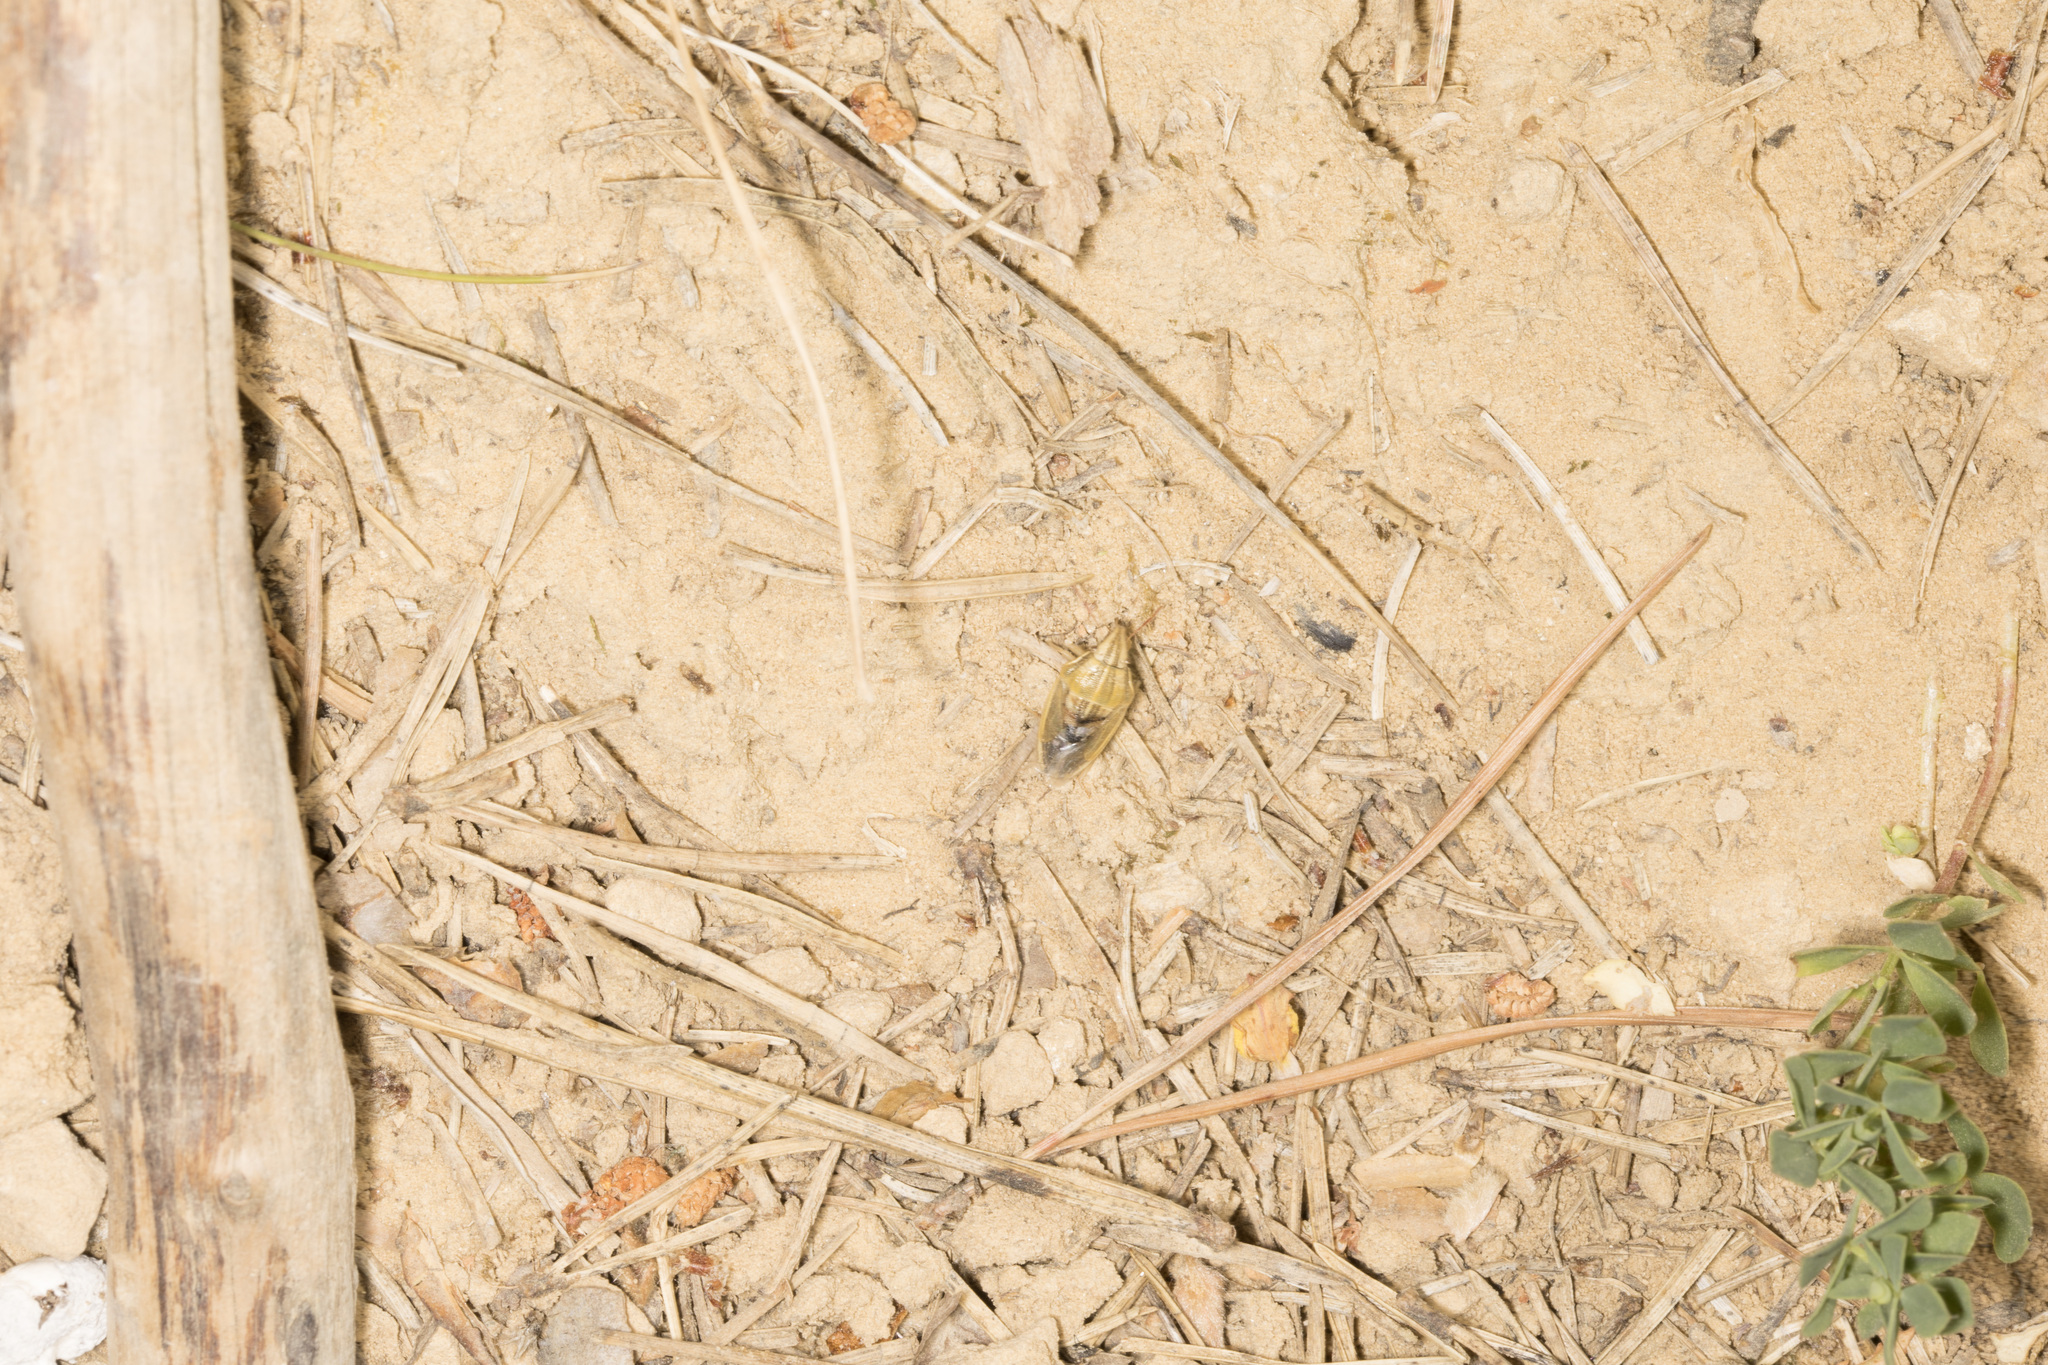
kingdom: Animalia
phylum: Arthropoda
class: Insecta
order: Hemiptera
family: Pentatomidae
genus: Aelia
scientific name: Aelia acuminata
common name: Bishop's mitre
